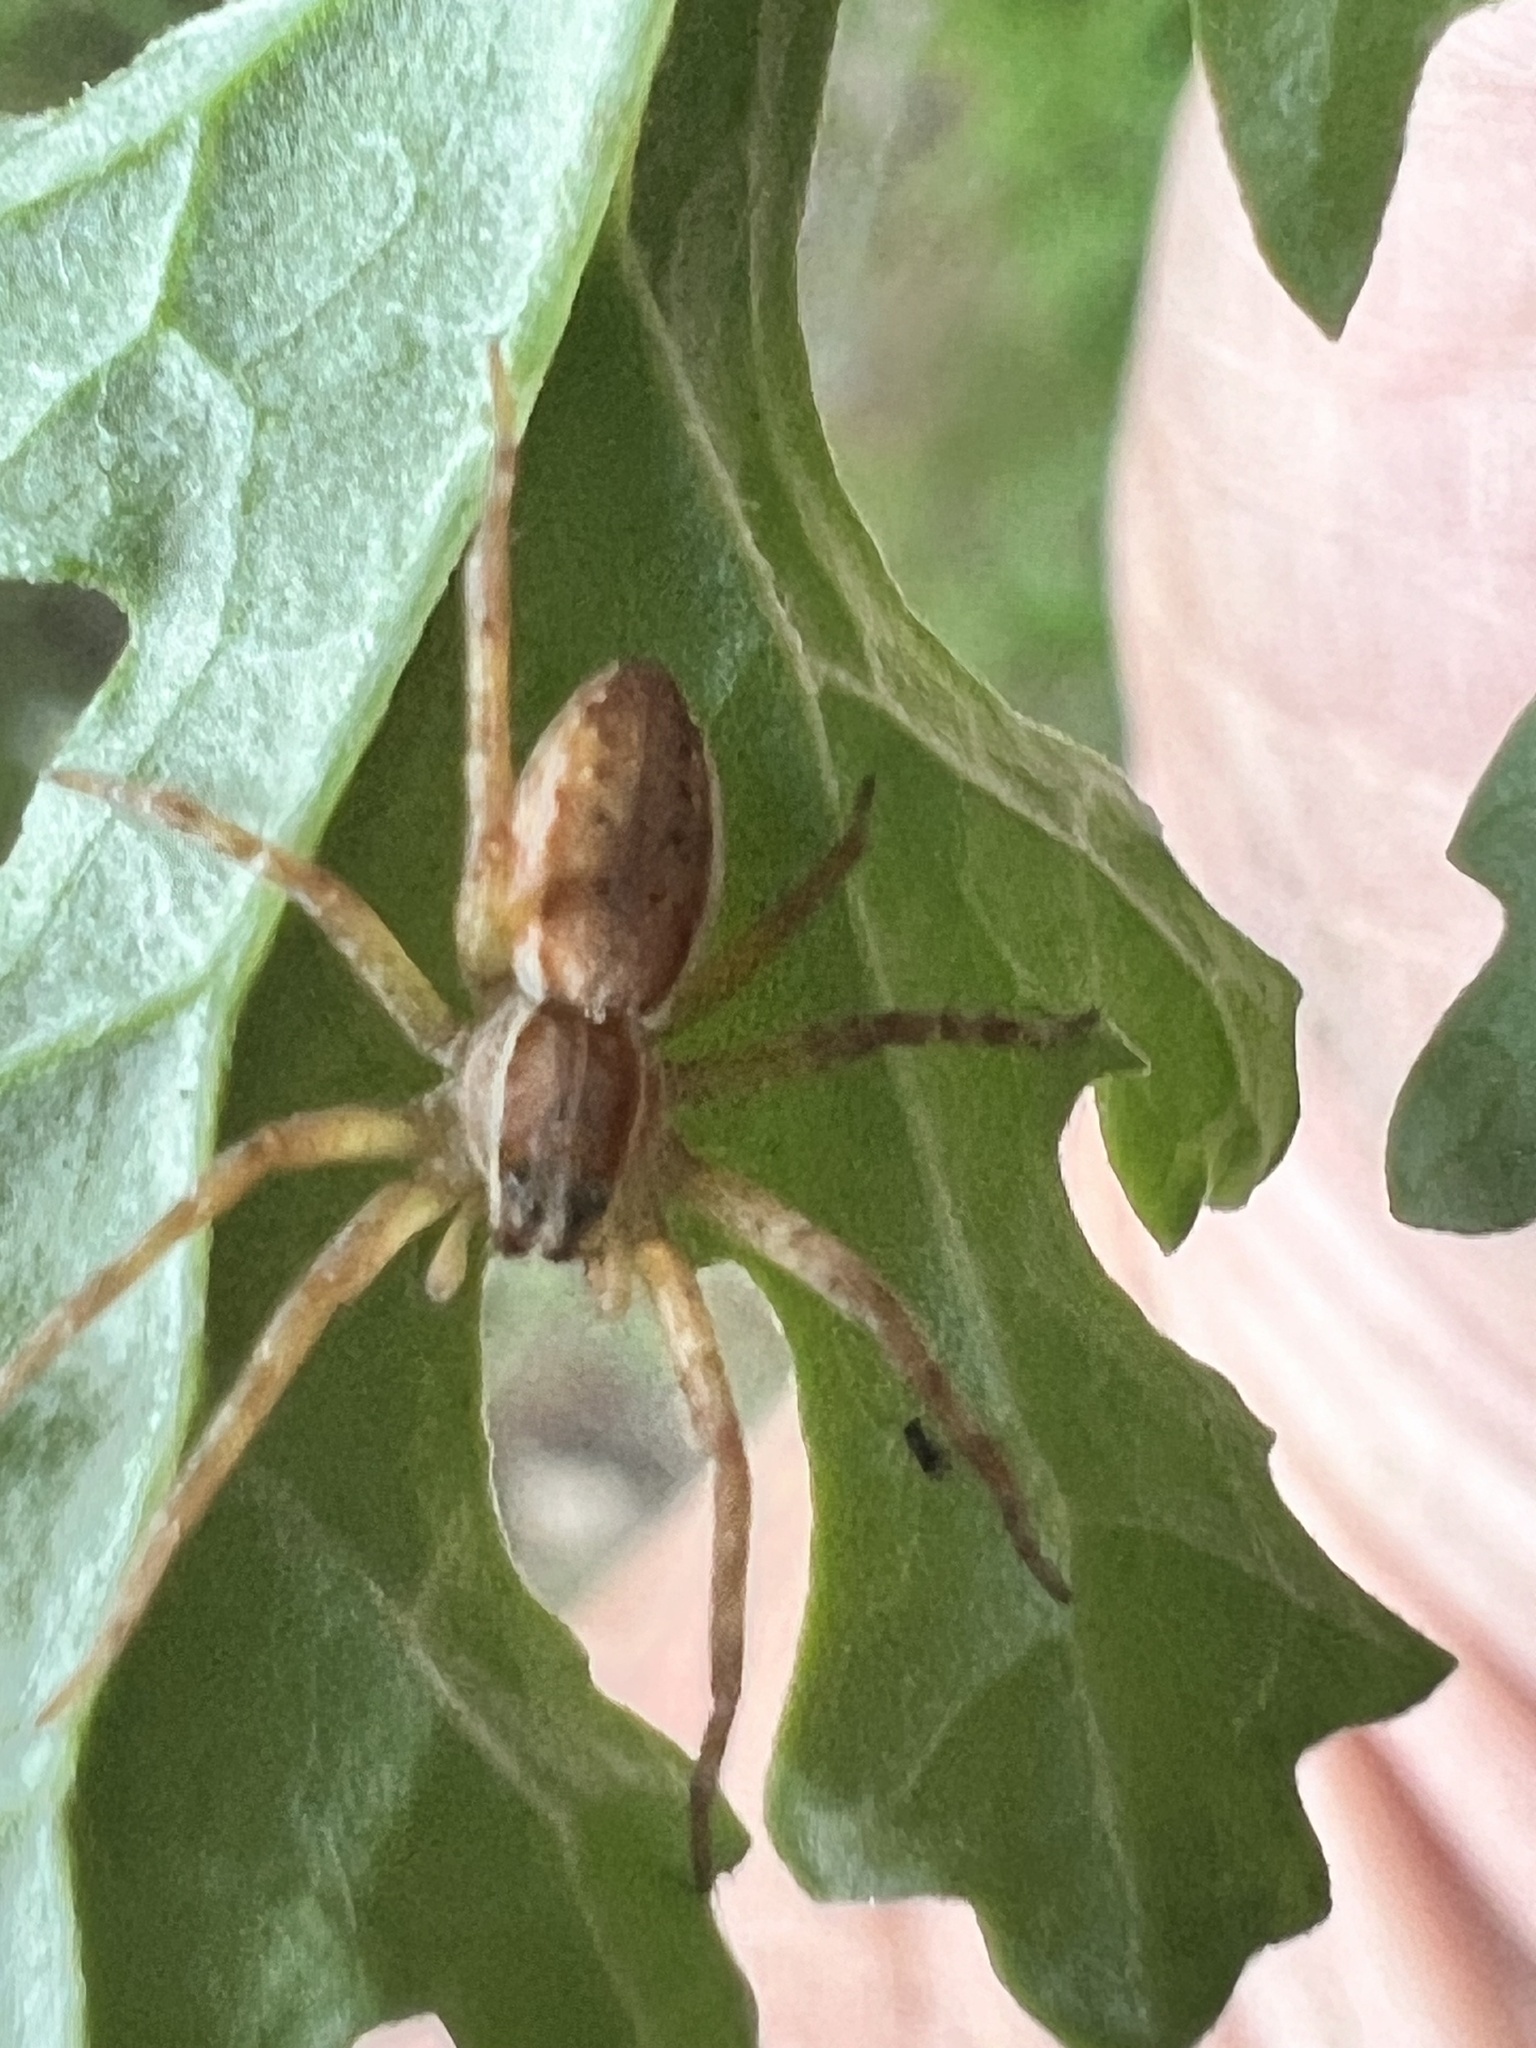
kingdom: Animalia
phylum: Arthropoda
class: Arachnida
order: Araneae
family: Pisauridae
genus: Dolomedes
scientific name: Dolomedes minor
